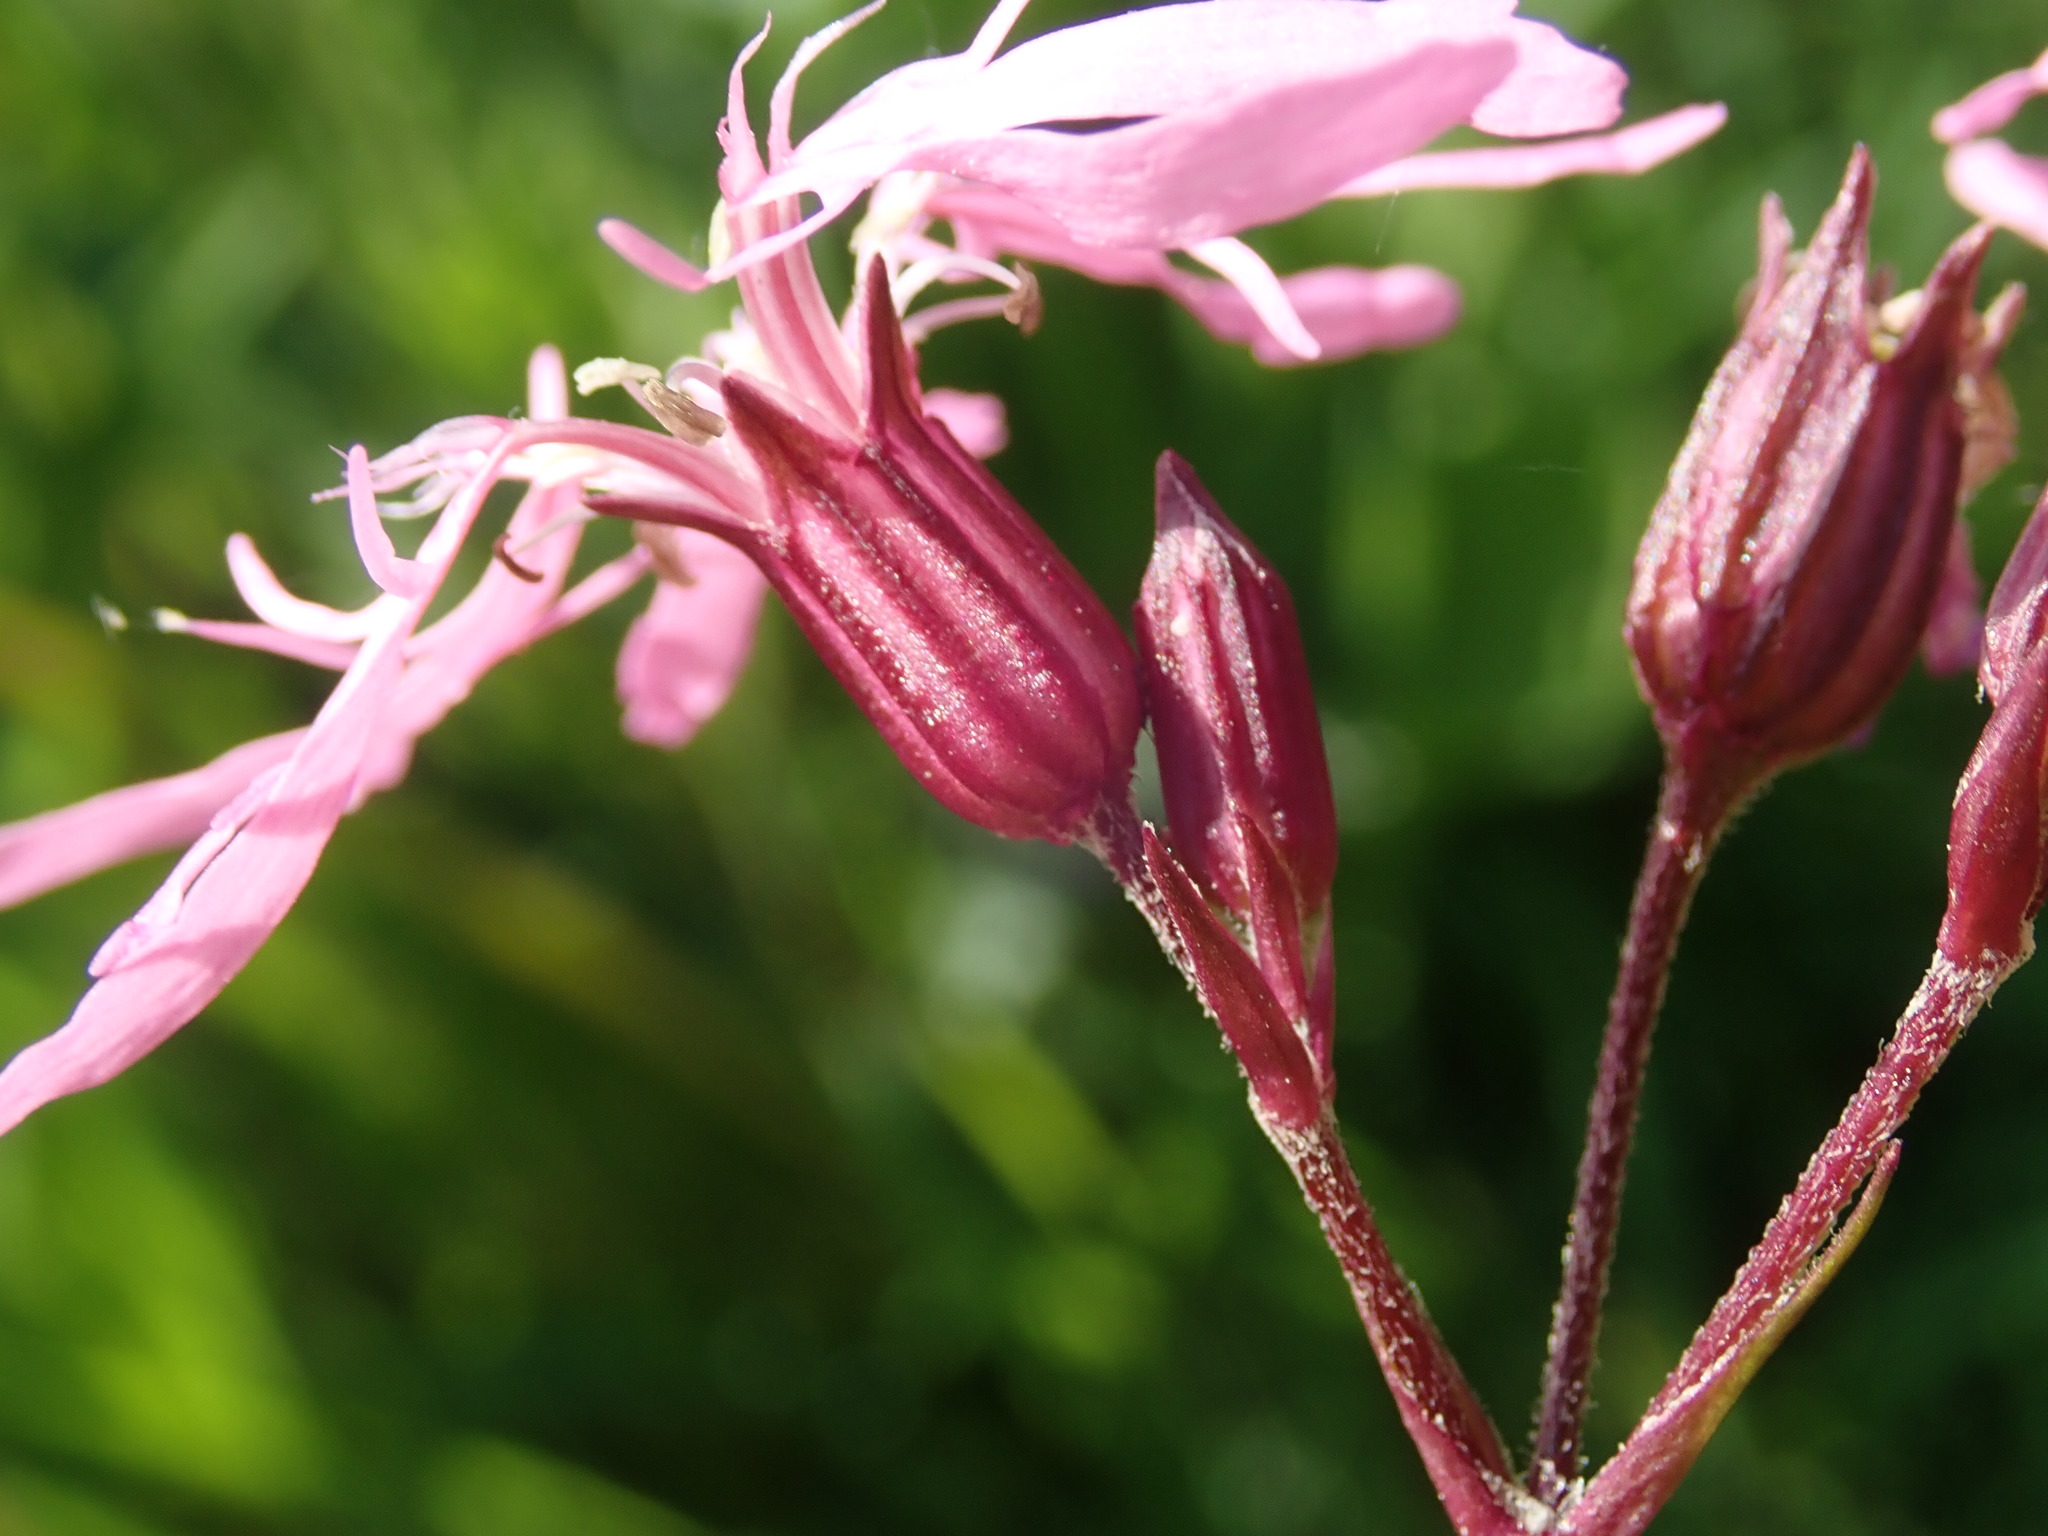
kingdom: Plantae
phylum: Tracheophyta
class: Magnoliopsida
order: Caryophyllales
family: Caryophyllaceae
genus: Silene
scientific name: Silene flos-cuculi
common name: Ragged-robin
